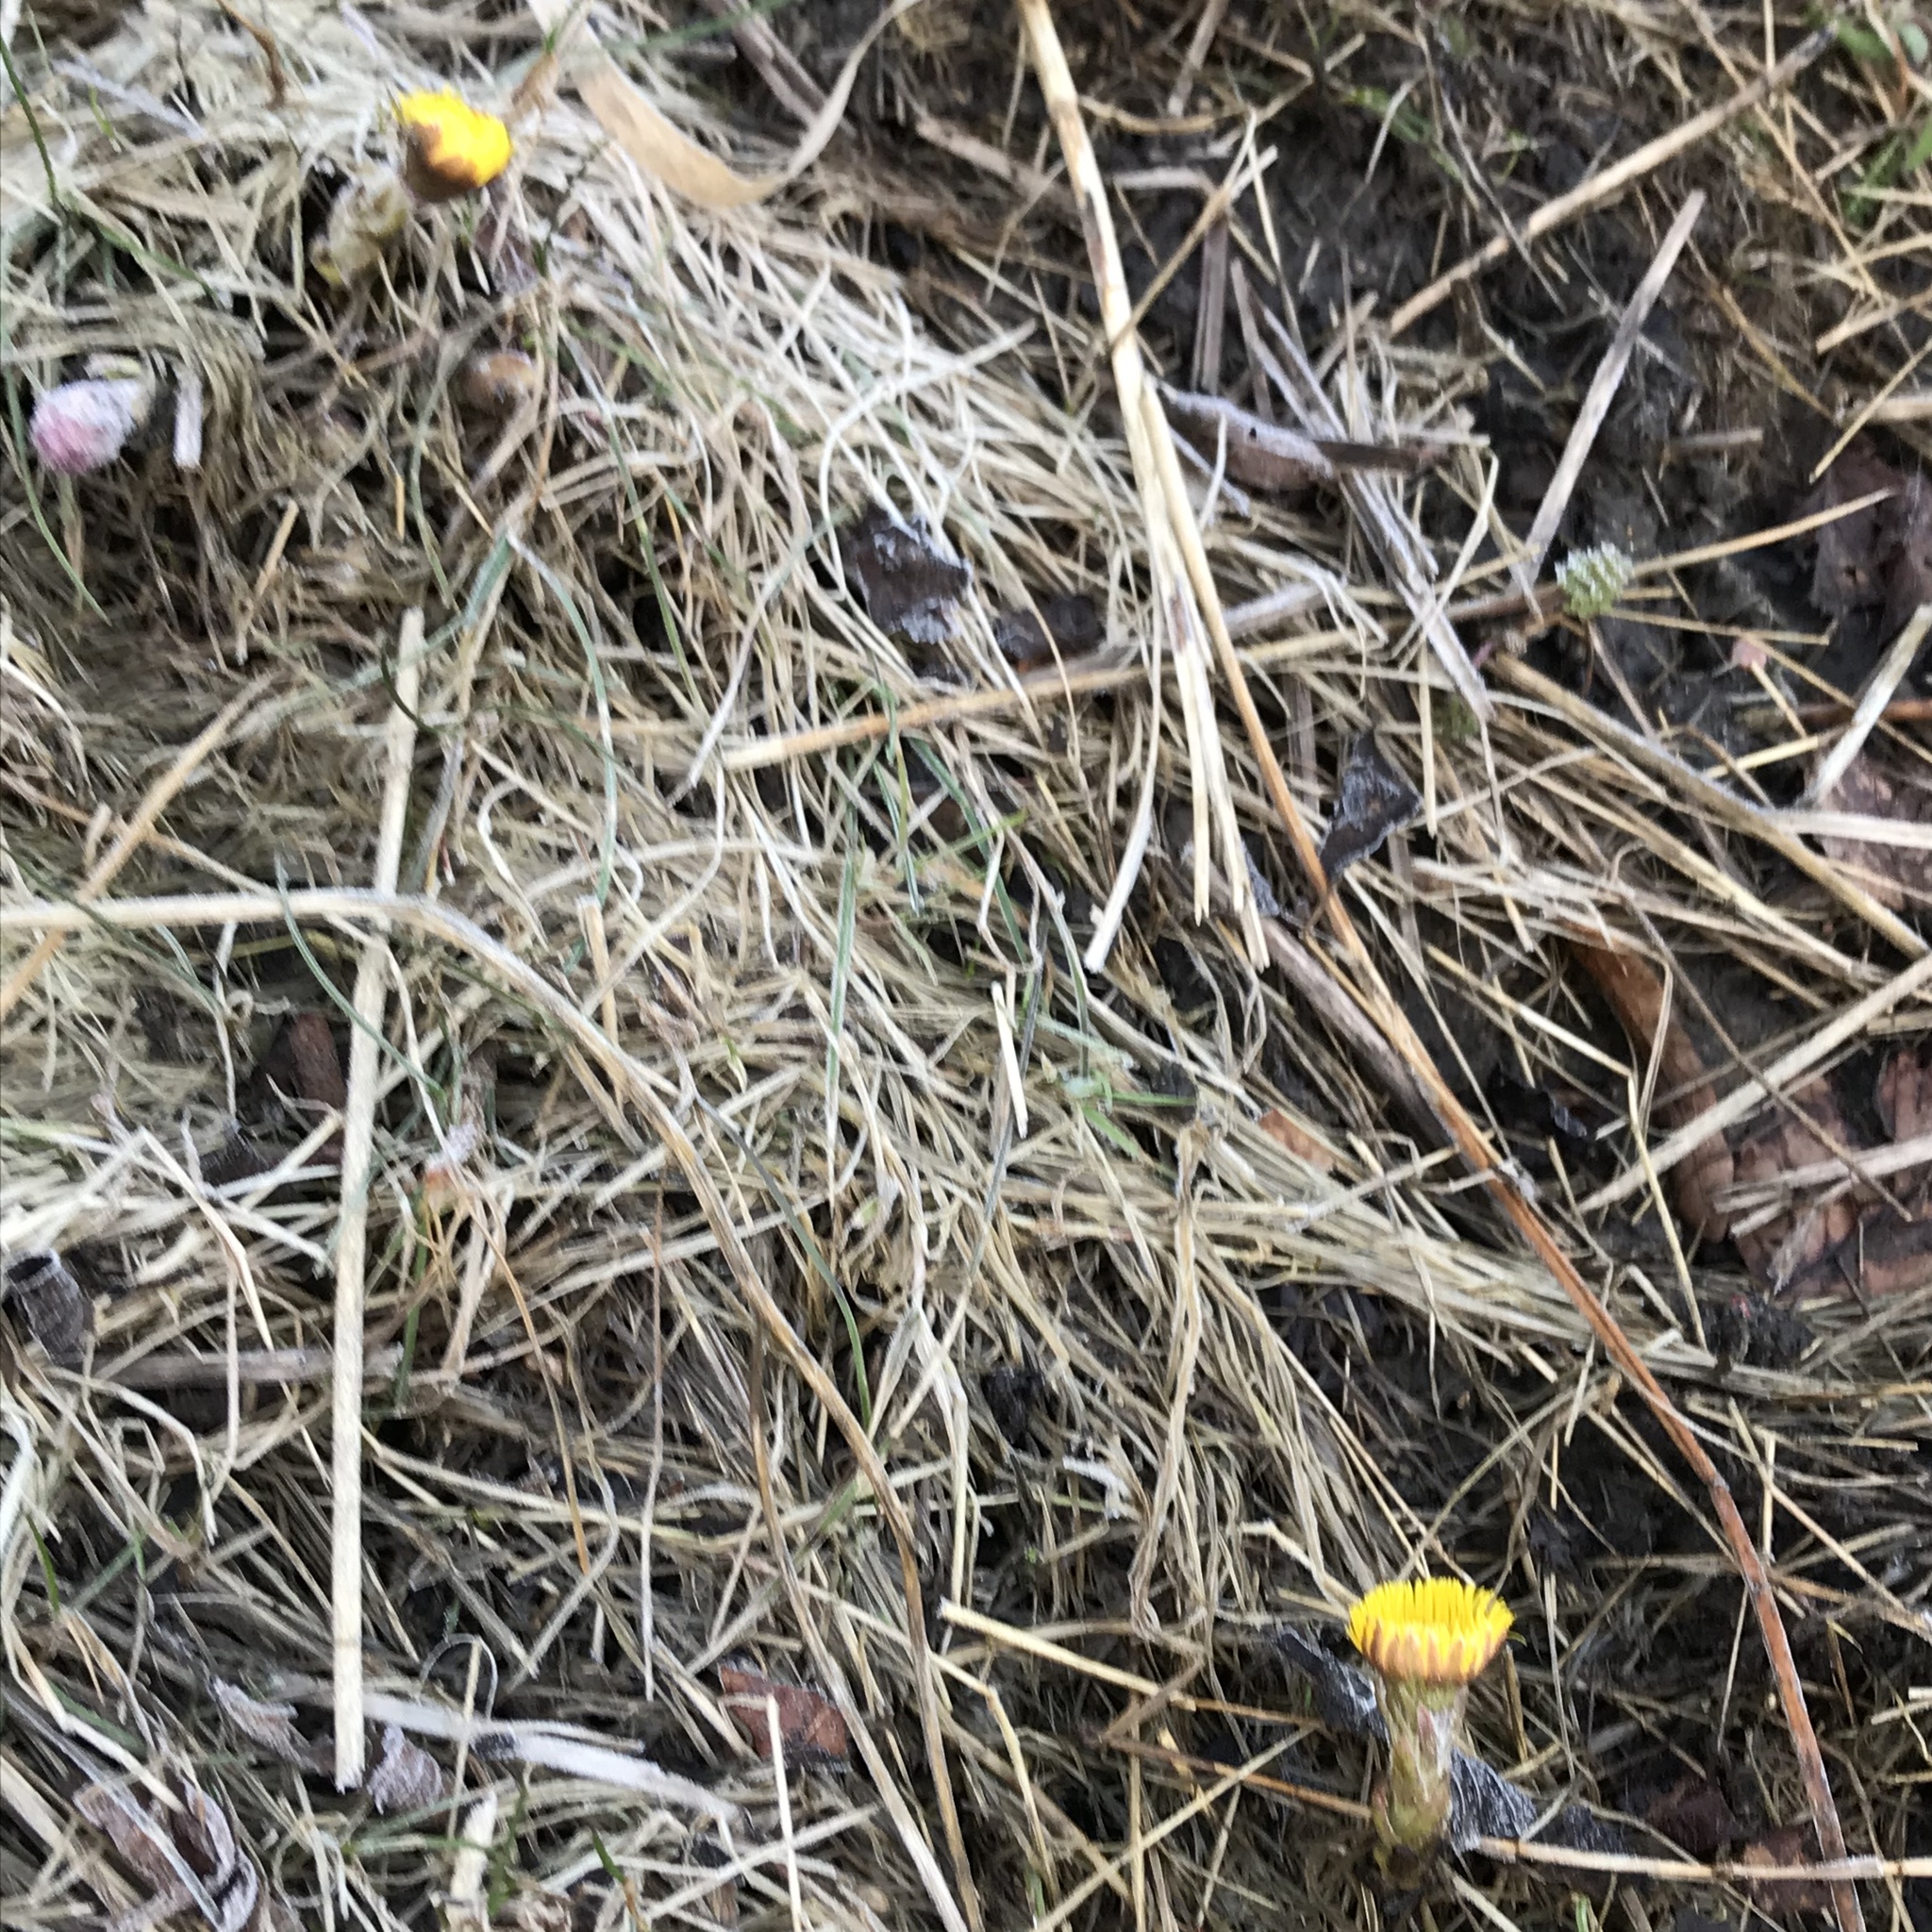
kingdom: Plantae
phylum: Tracheophyta
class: Magnoliopsida
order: Asterales
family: Asteraceae
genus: Tussilago
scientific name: Tussilago farfara
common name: Coltsfoot
